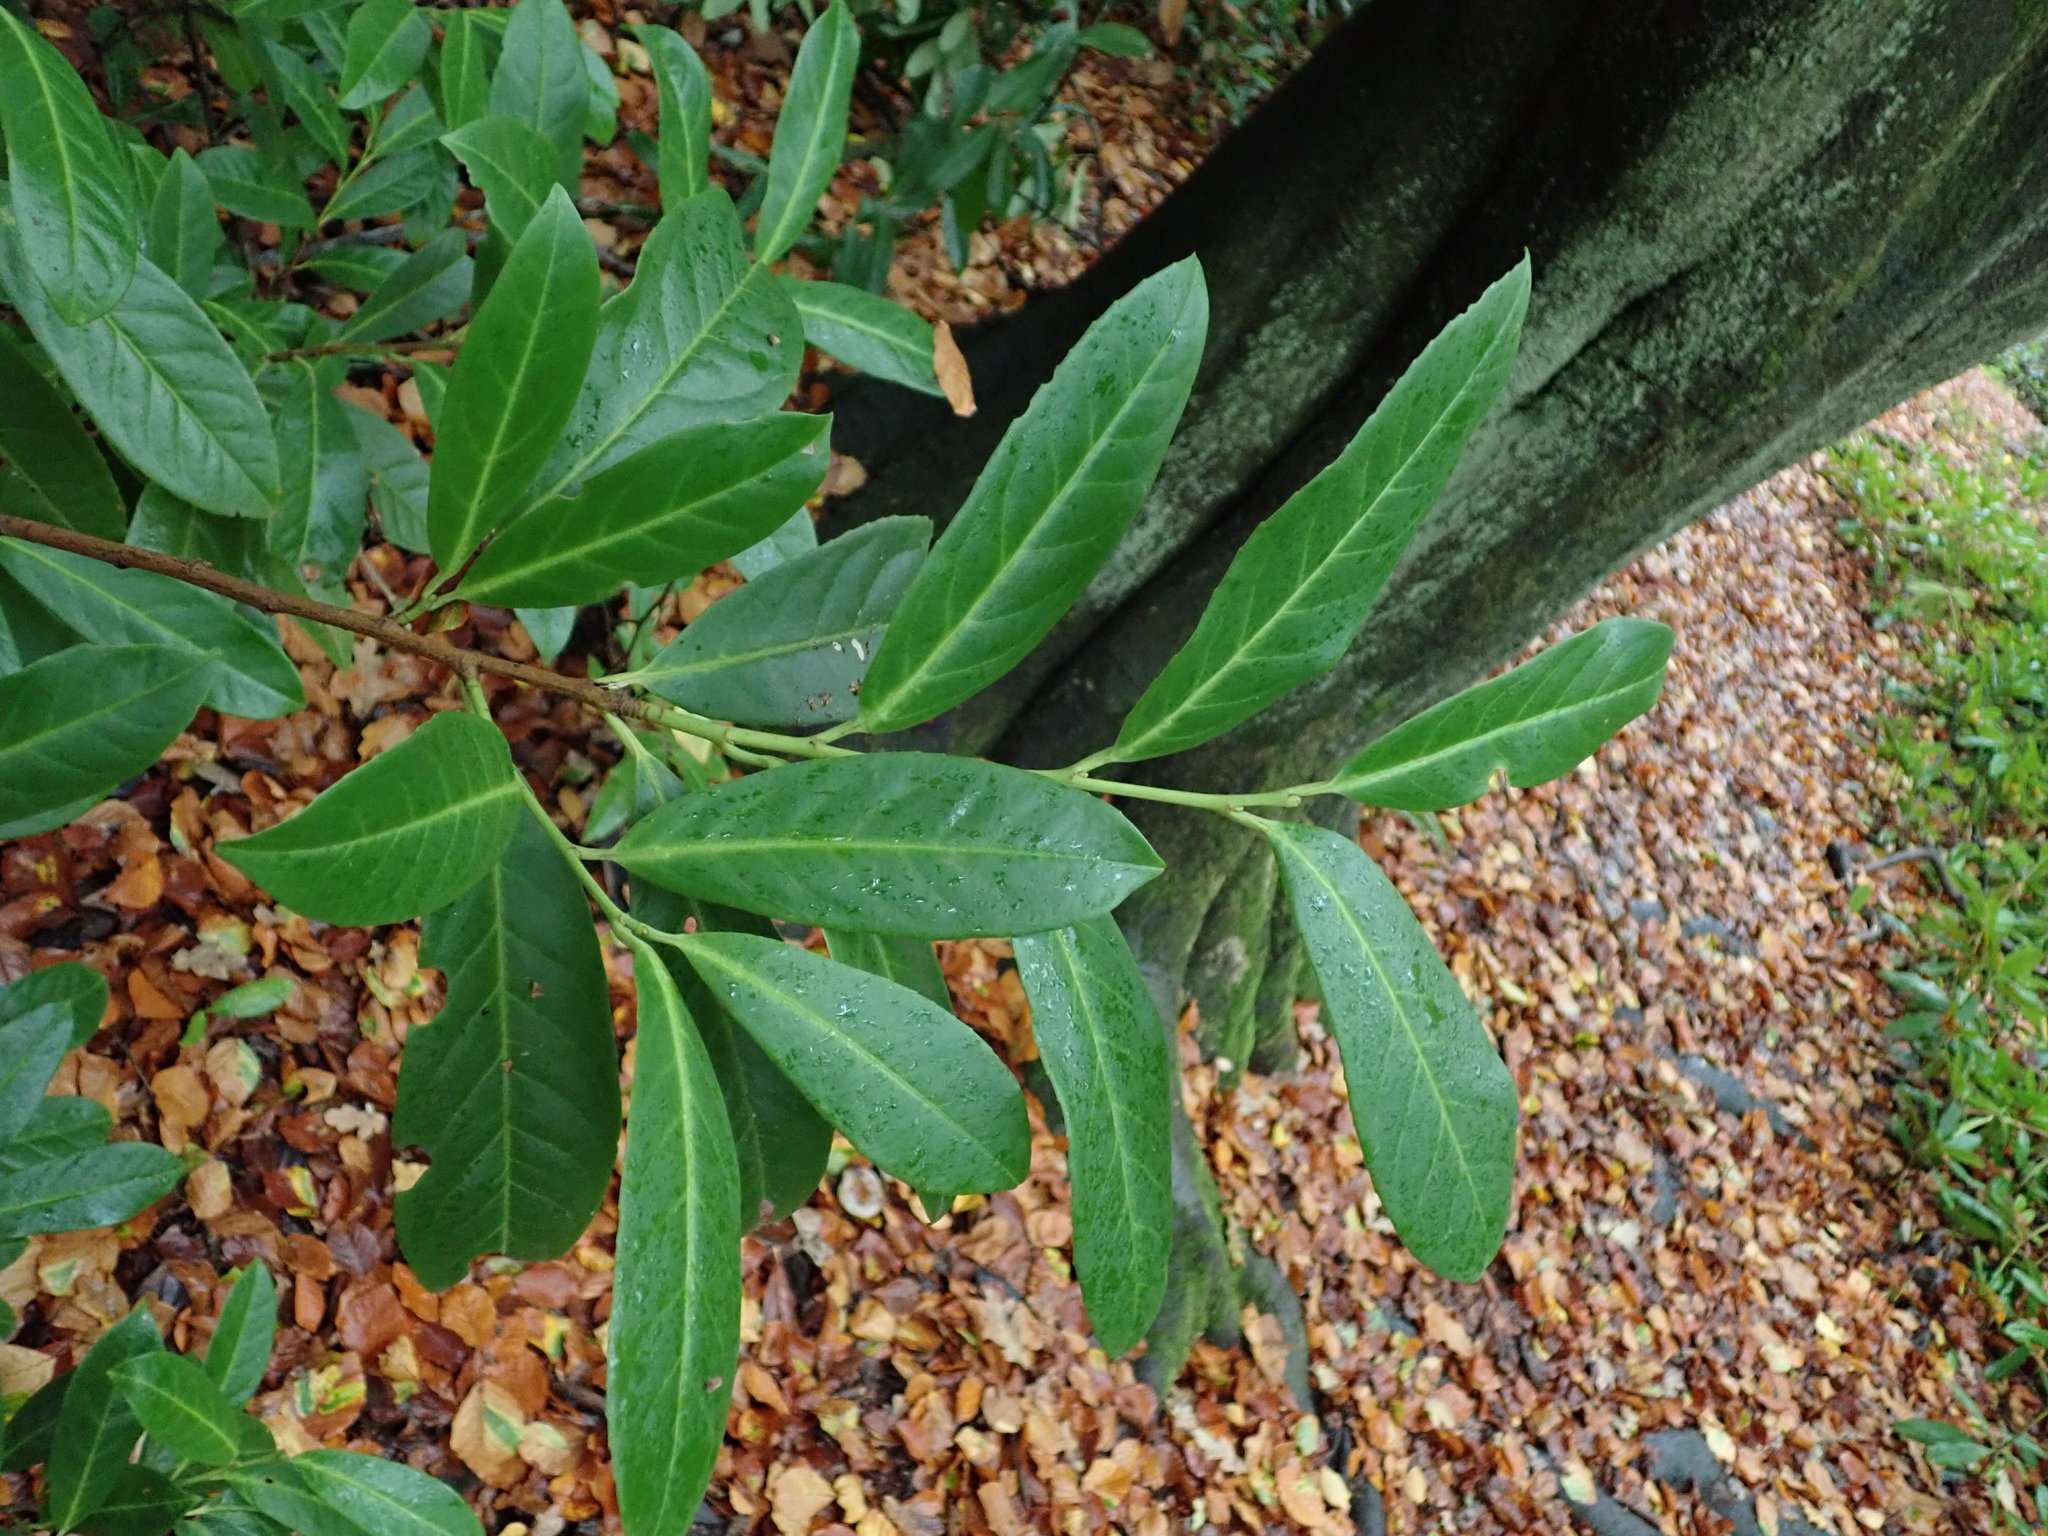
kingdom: Plantae
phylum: Tracheophyta
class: Magnoliopsida
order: Rosales
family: Rosaceae
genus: Prunus
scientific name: Prunus laurocerasus
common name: Cherry laurel
